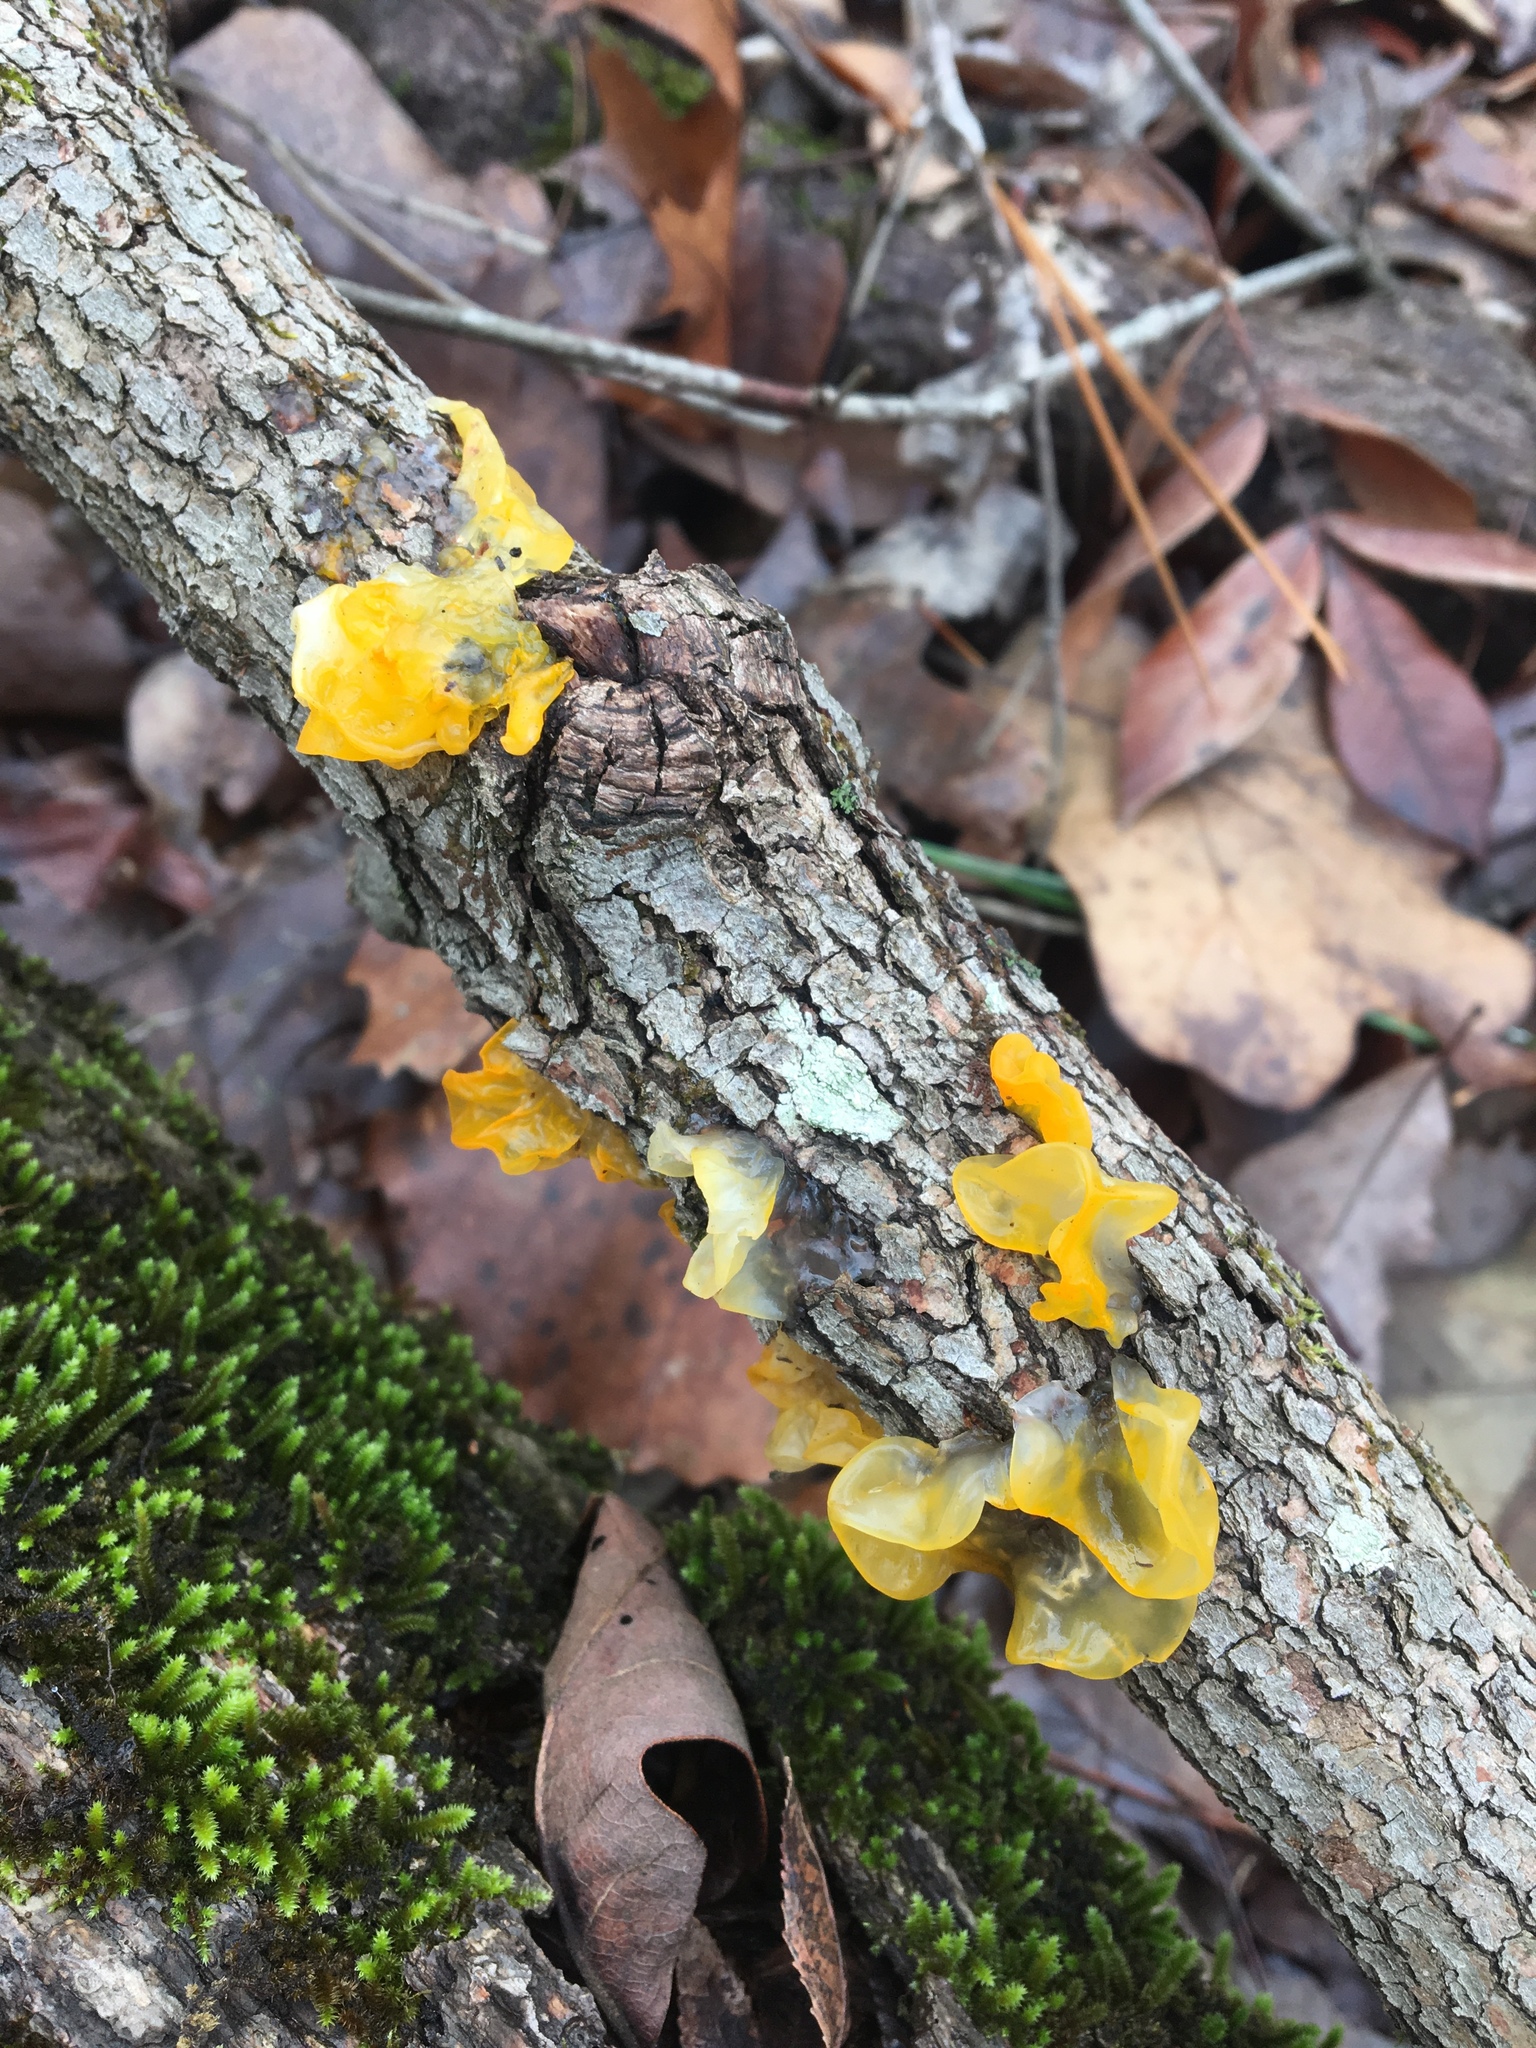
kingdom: Fungi
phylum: Basidiomycota
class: Tremellomycetes
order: Tremellales
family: Tremellaceae
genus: Tremella
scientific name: Tremella mesenterica
